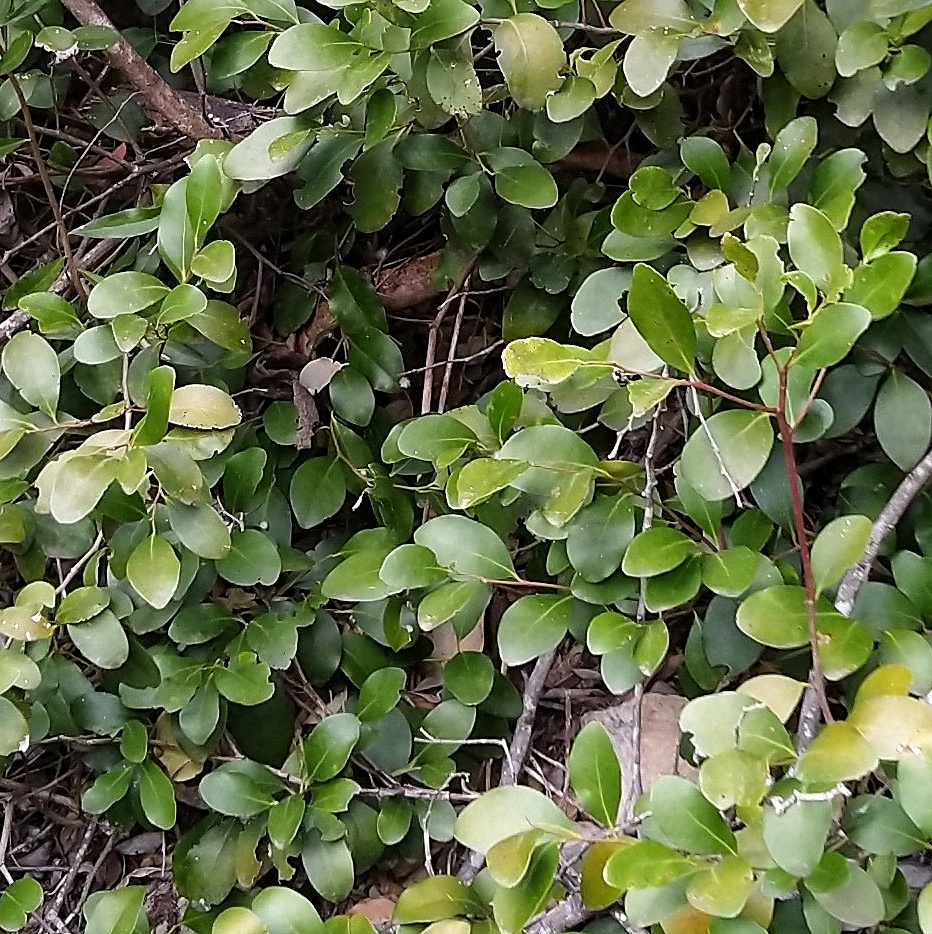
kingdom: Plantae
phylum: Tracheophyta
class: Magnoliopsida
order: Celastrales
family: Celastraceae
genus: Pterocelastrus
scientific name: Pterocelastrus tricuspidatus
